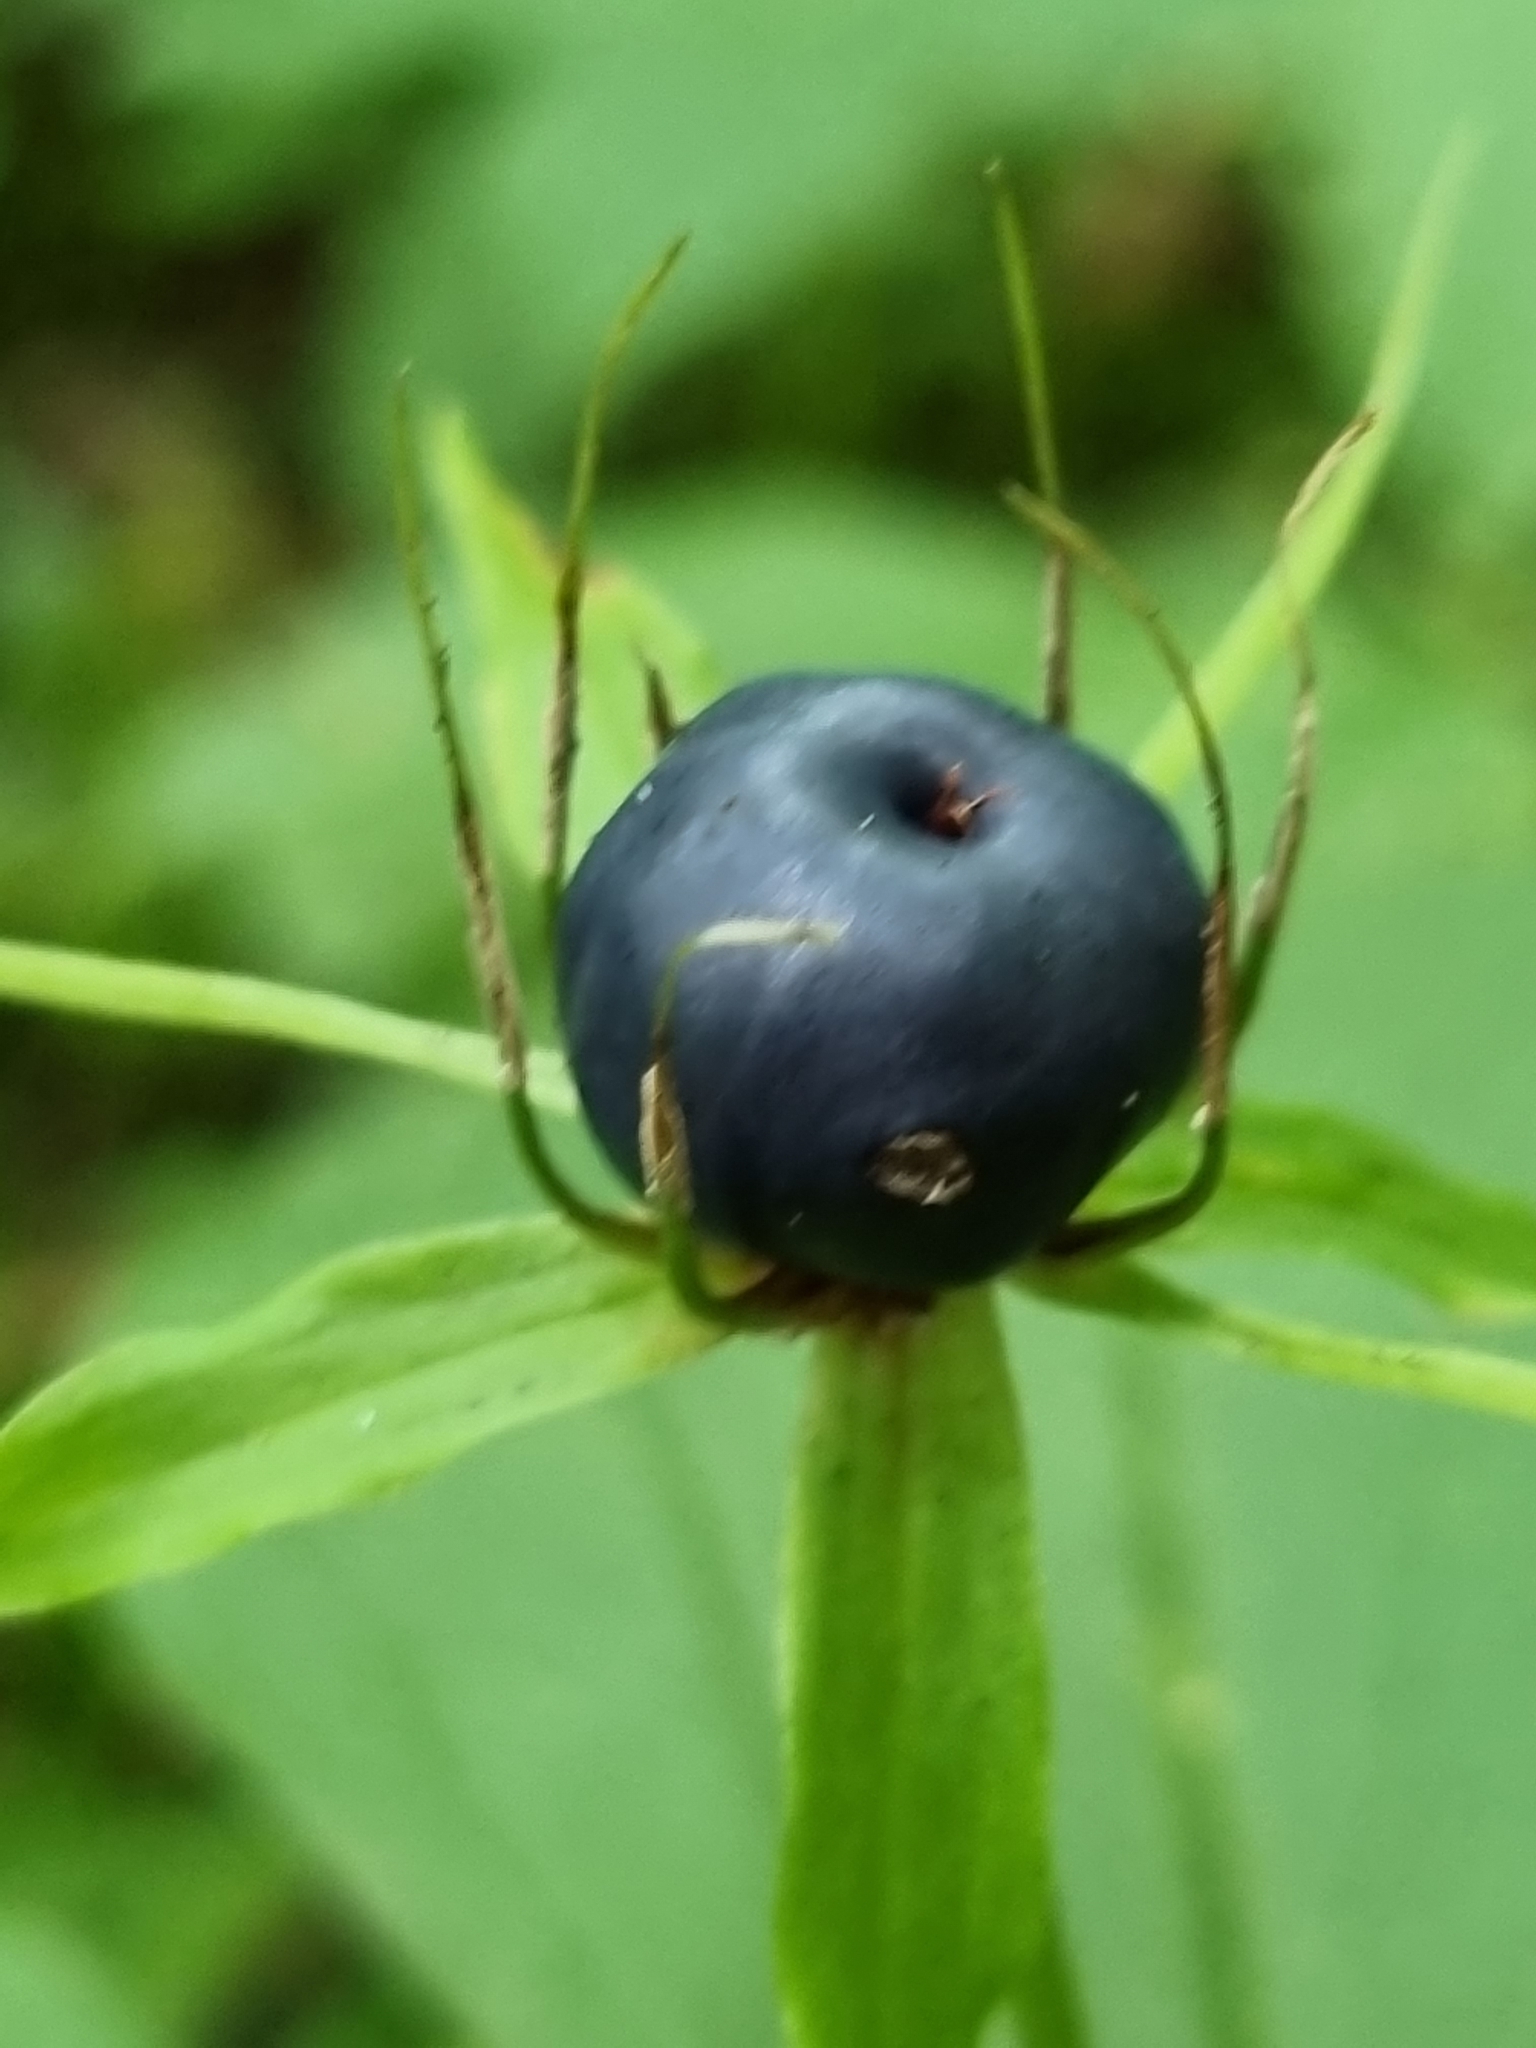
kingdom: Plantae
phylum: Tracheophyta
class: Liliopsida
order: Liliales
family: Melanthiaceae
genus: Paris
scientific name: Paris quadrifolia
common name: Herb-paris
